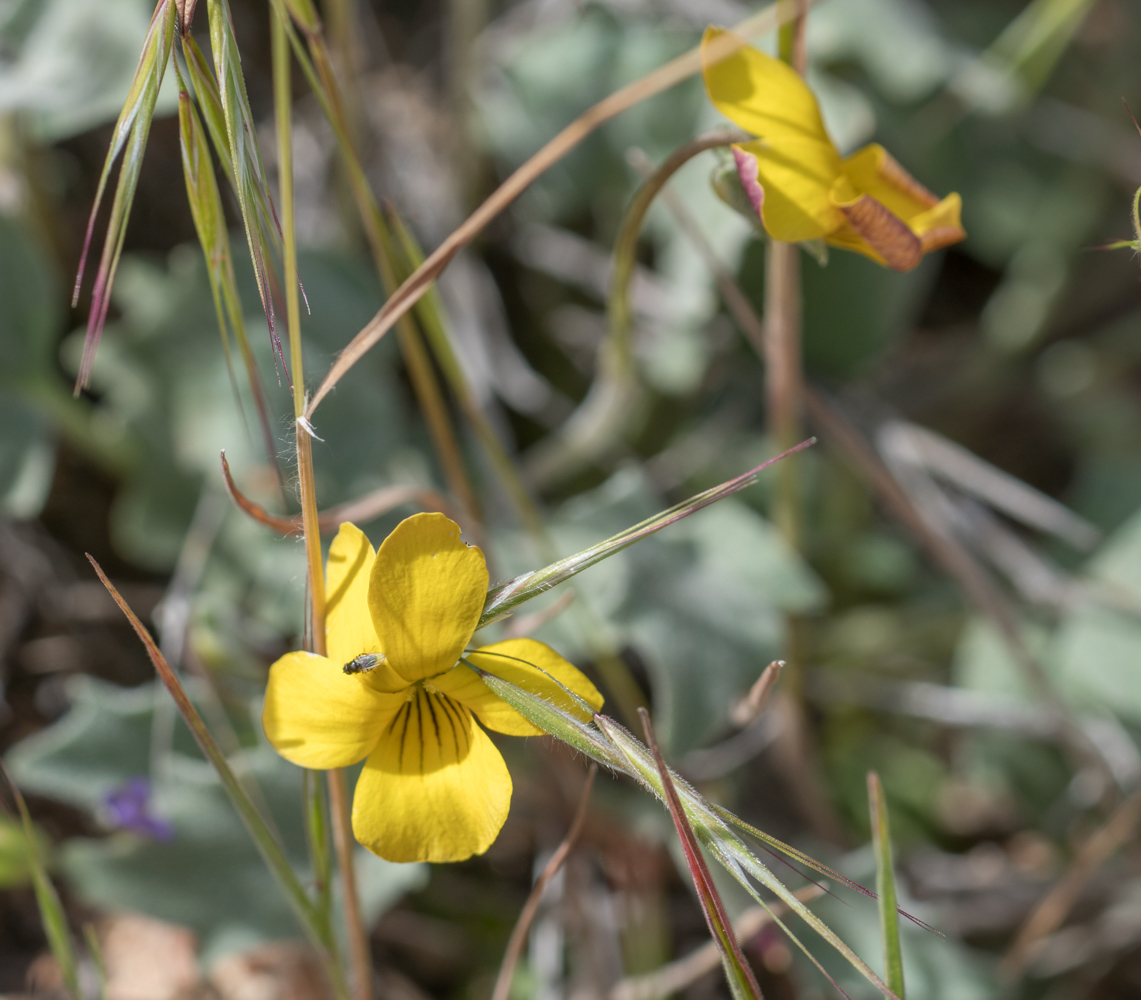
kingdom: Plantae
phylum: Tracheophyta
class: Magnoliopsida
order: Malpighiales
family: Violaceae
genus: Viola
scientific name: Viola purpurea
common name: Pine violet
